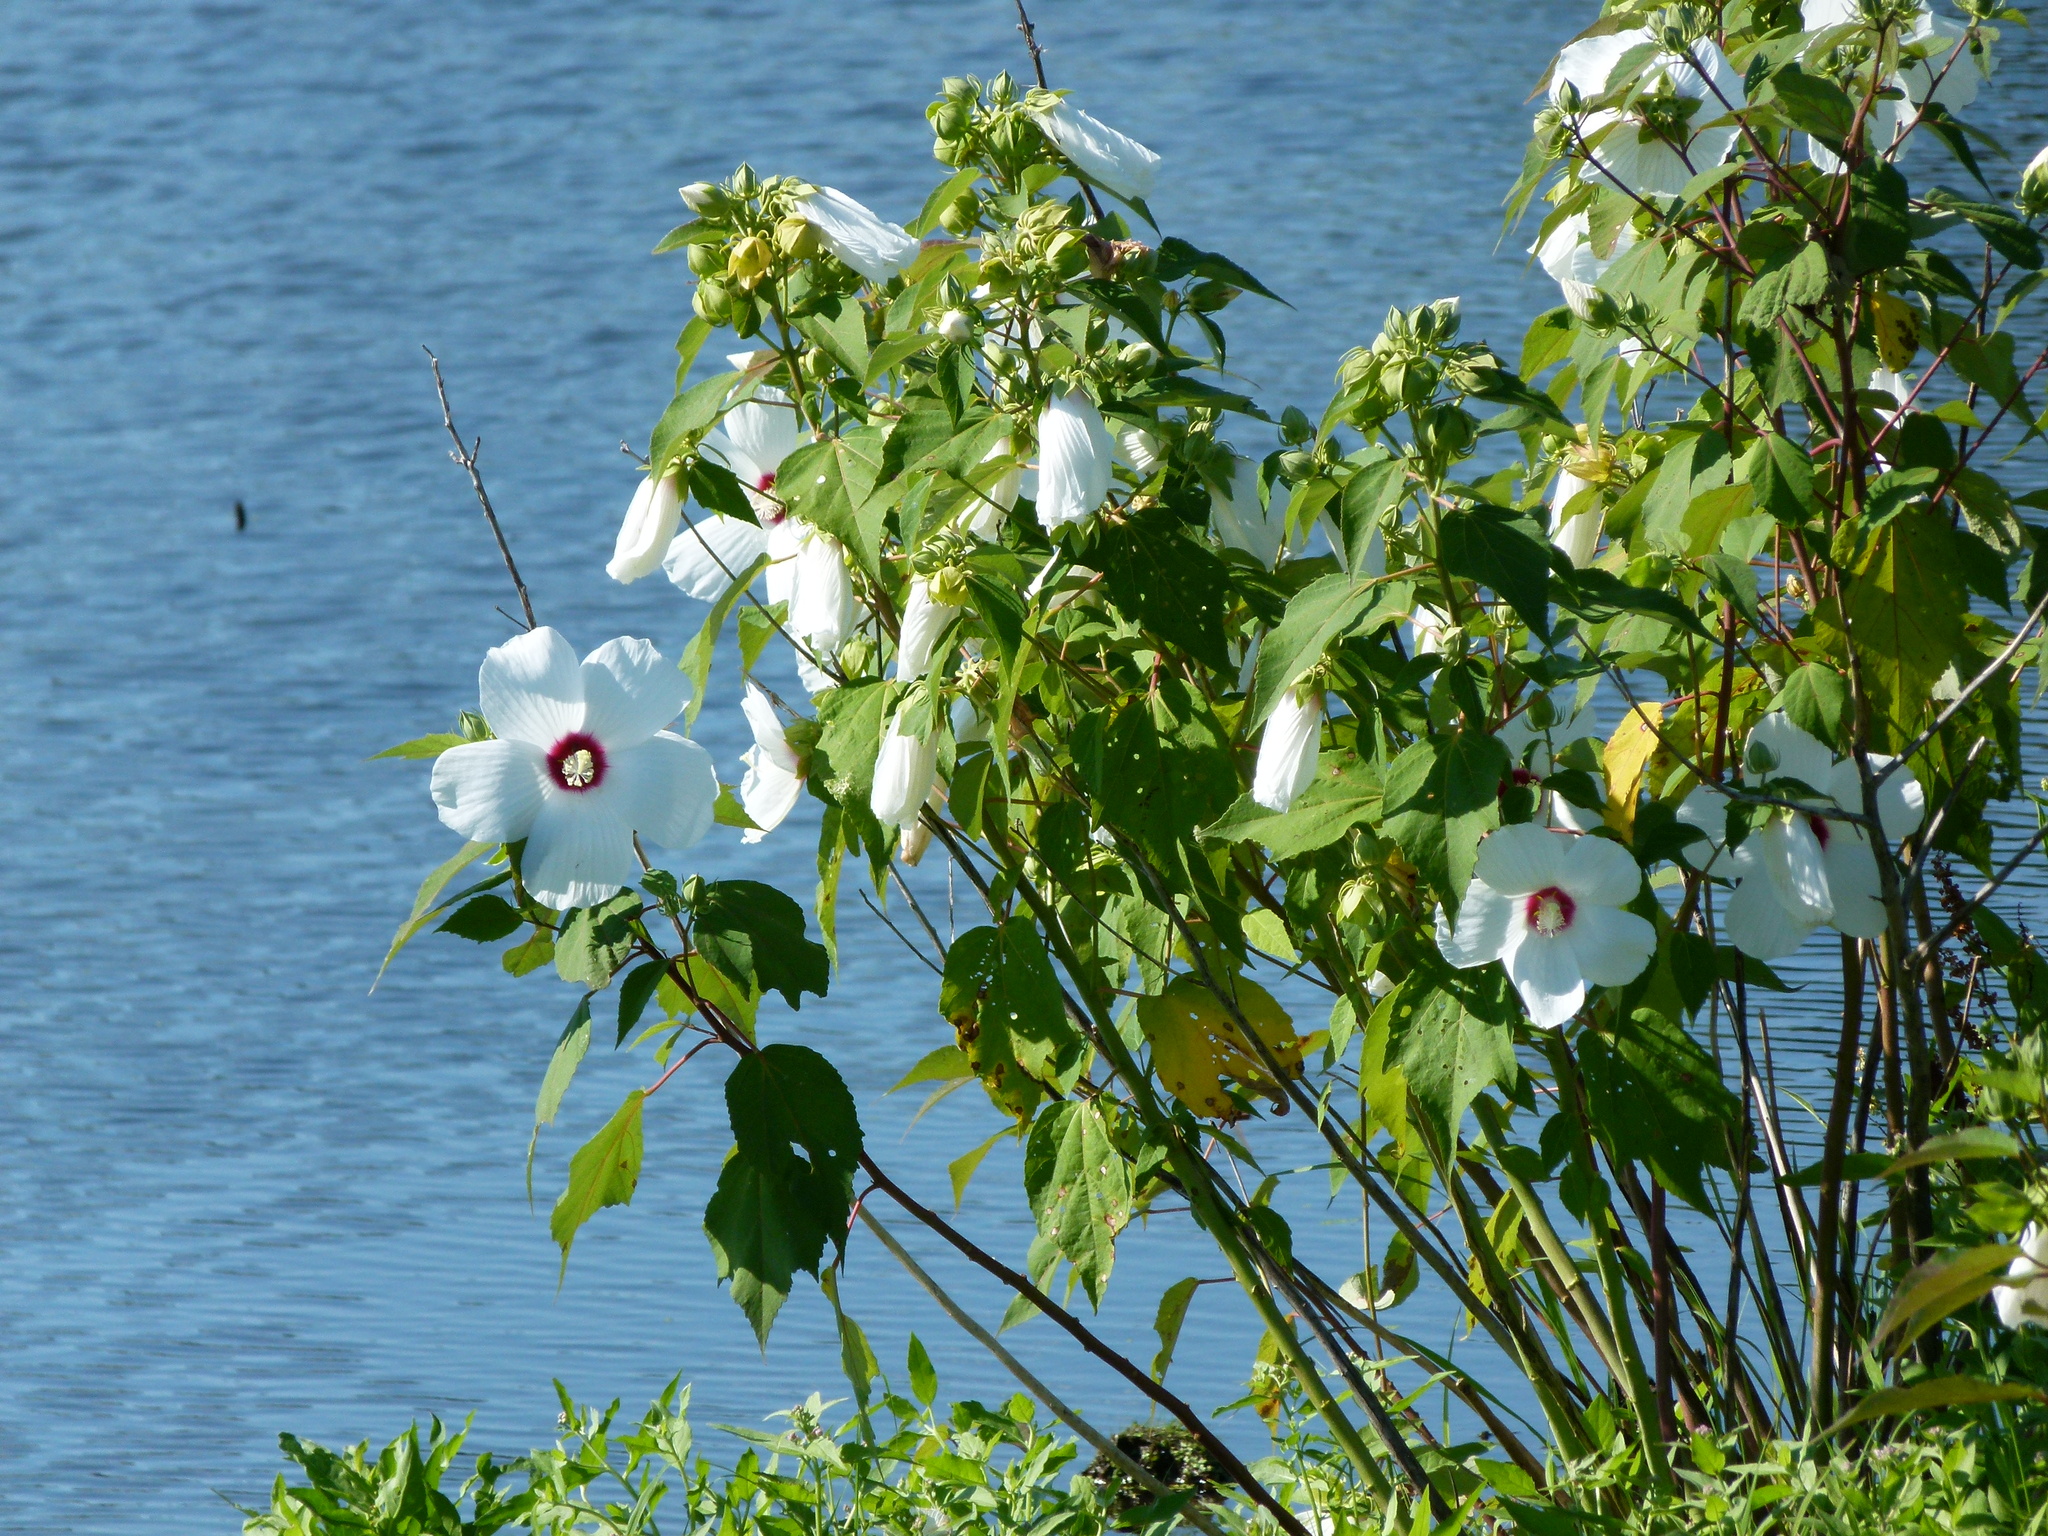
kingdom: Plantae
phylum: Tracheophyta
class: Magnoliopsida
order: Malvales
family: Malvaceae
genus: Hibiscus
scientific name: Hibiscus moscheutos
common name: Common rose-mallow
